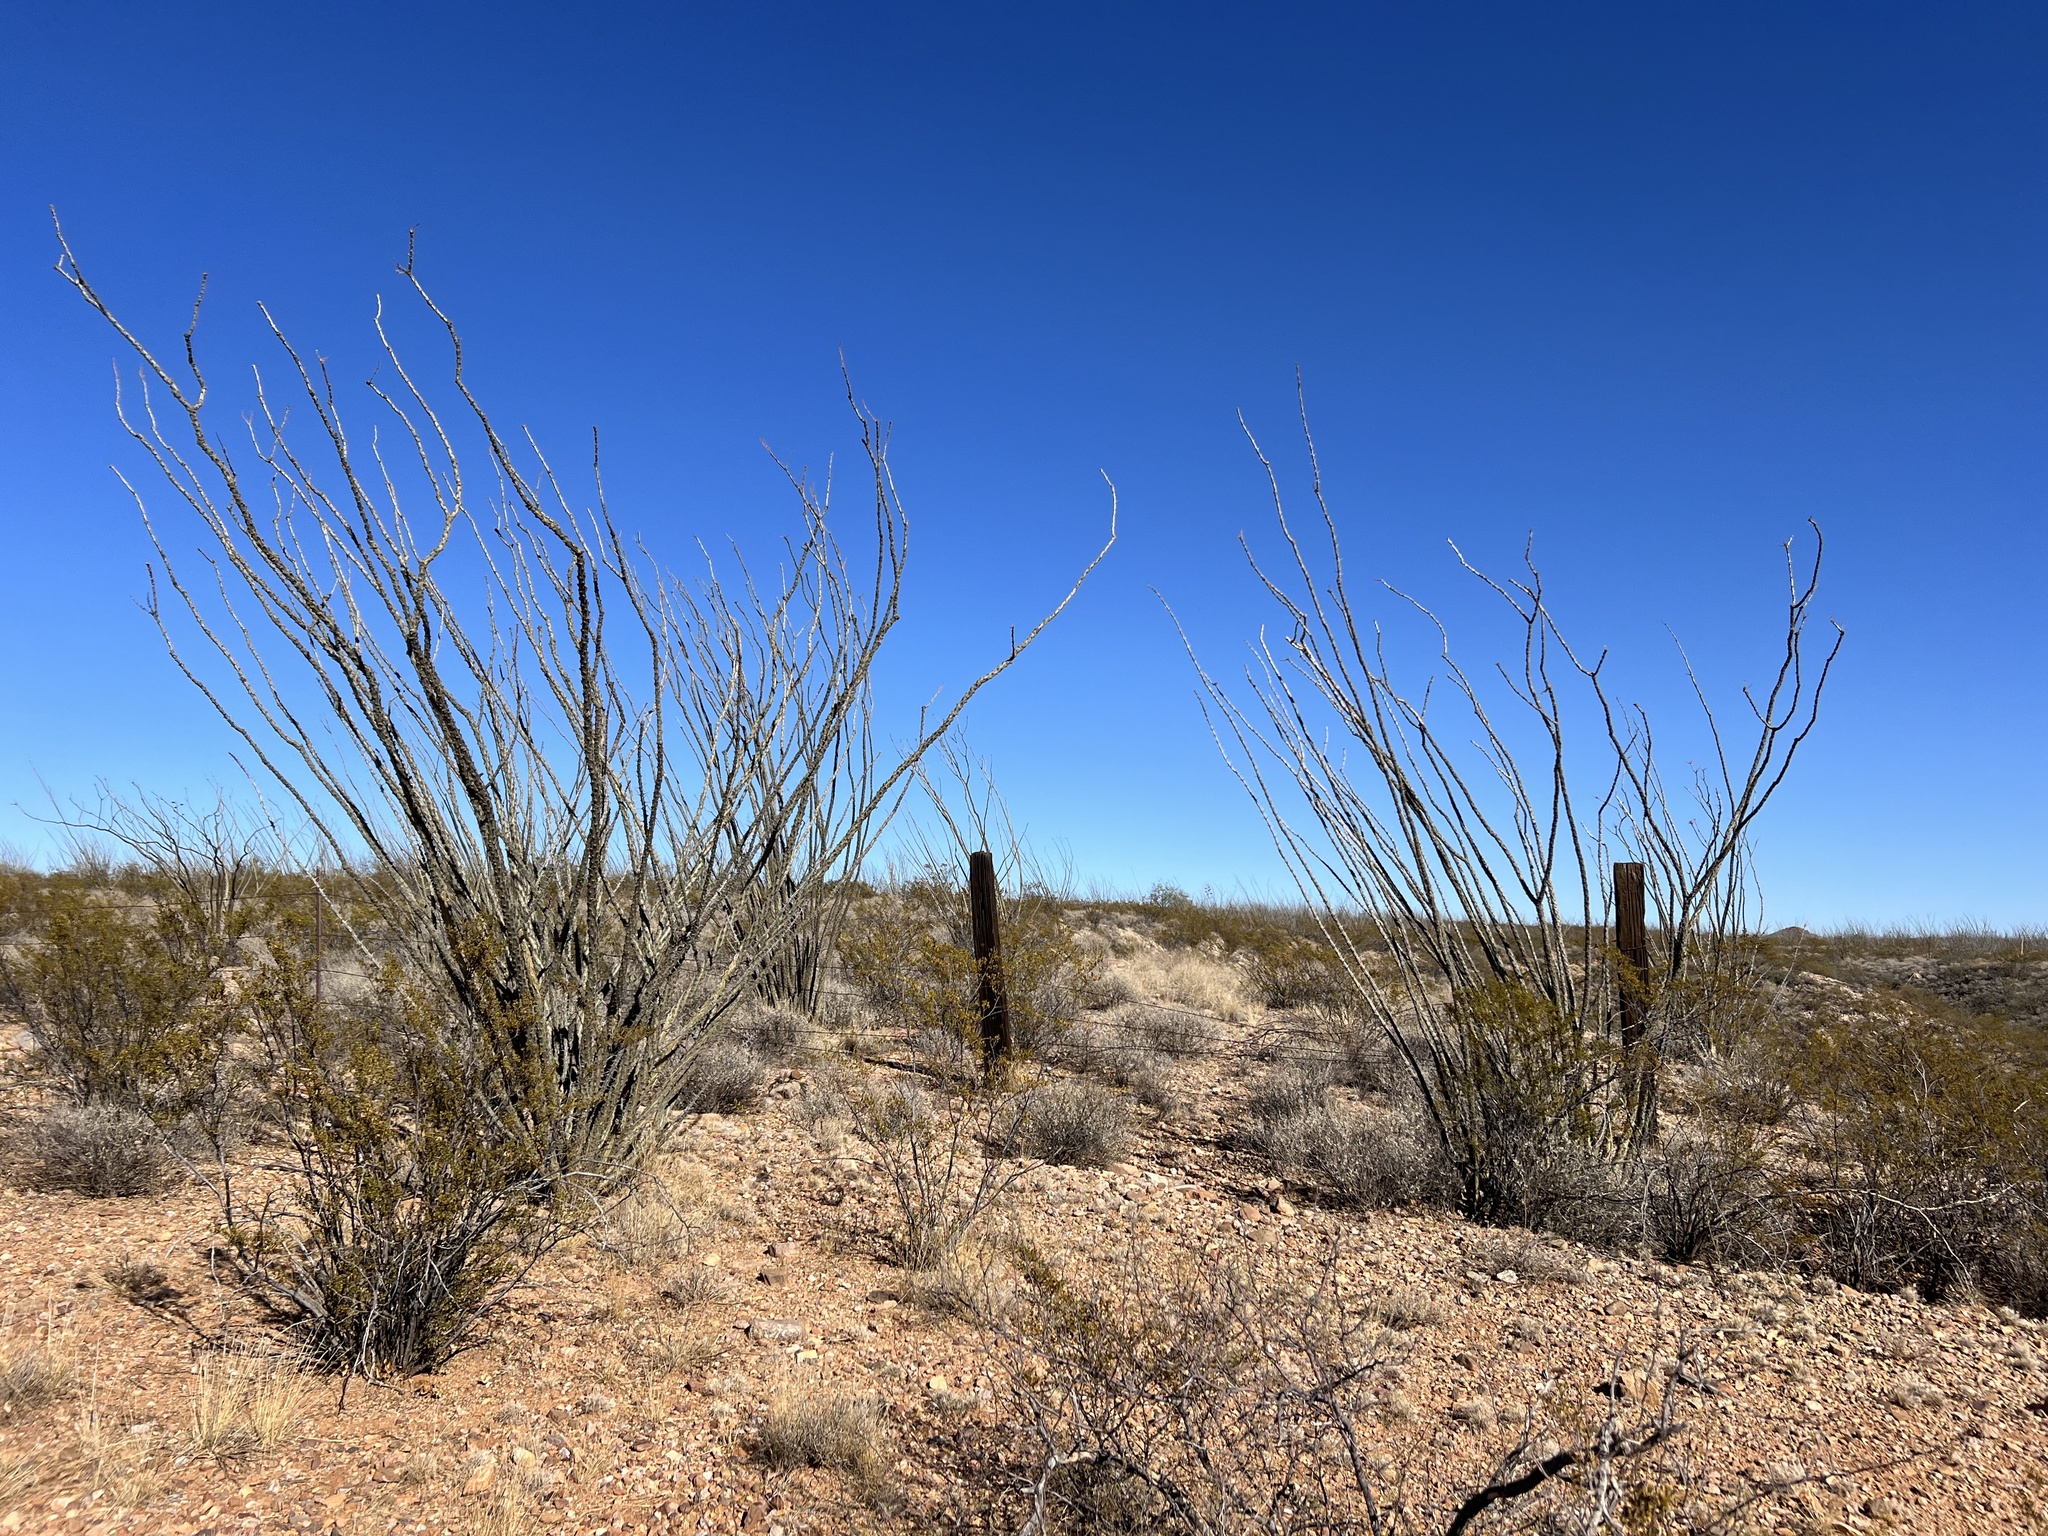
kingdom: Plantae
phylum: Tracheophyta
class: Magnoliopsida
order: Ericales
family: Fouquieriaceae
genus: Fouquieria
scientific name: Fouquieria splendens
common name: Vine-cactus
